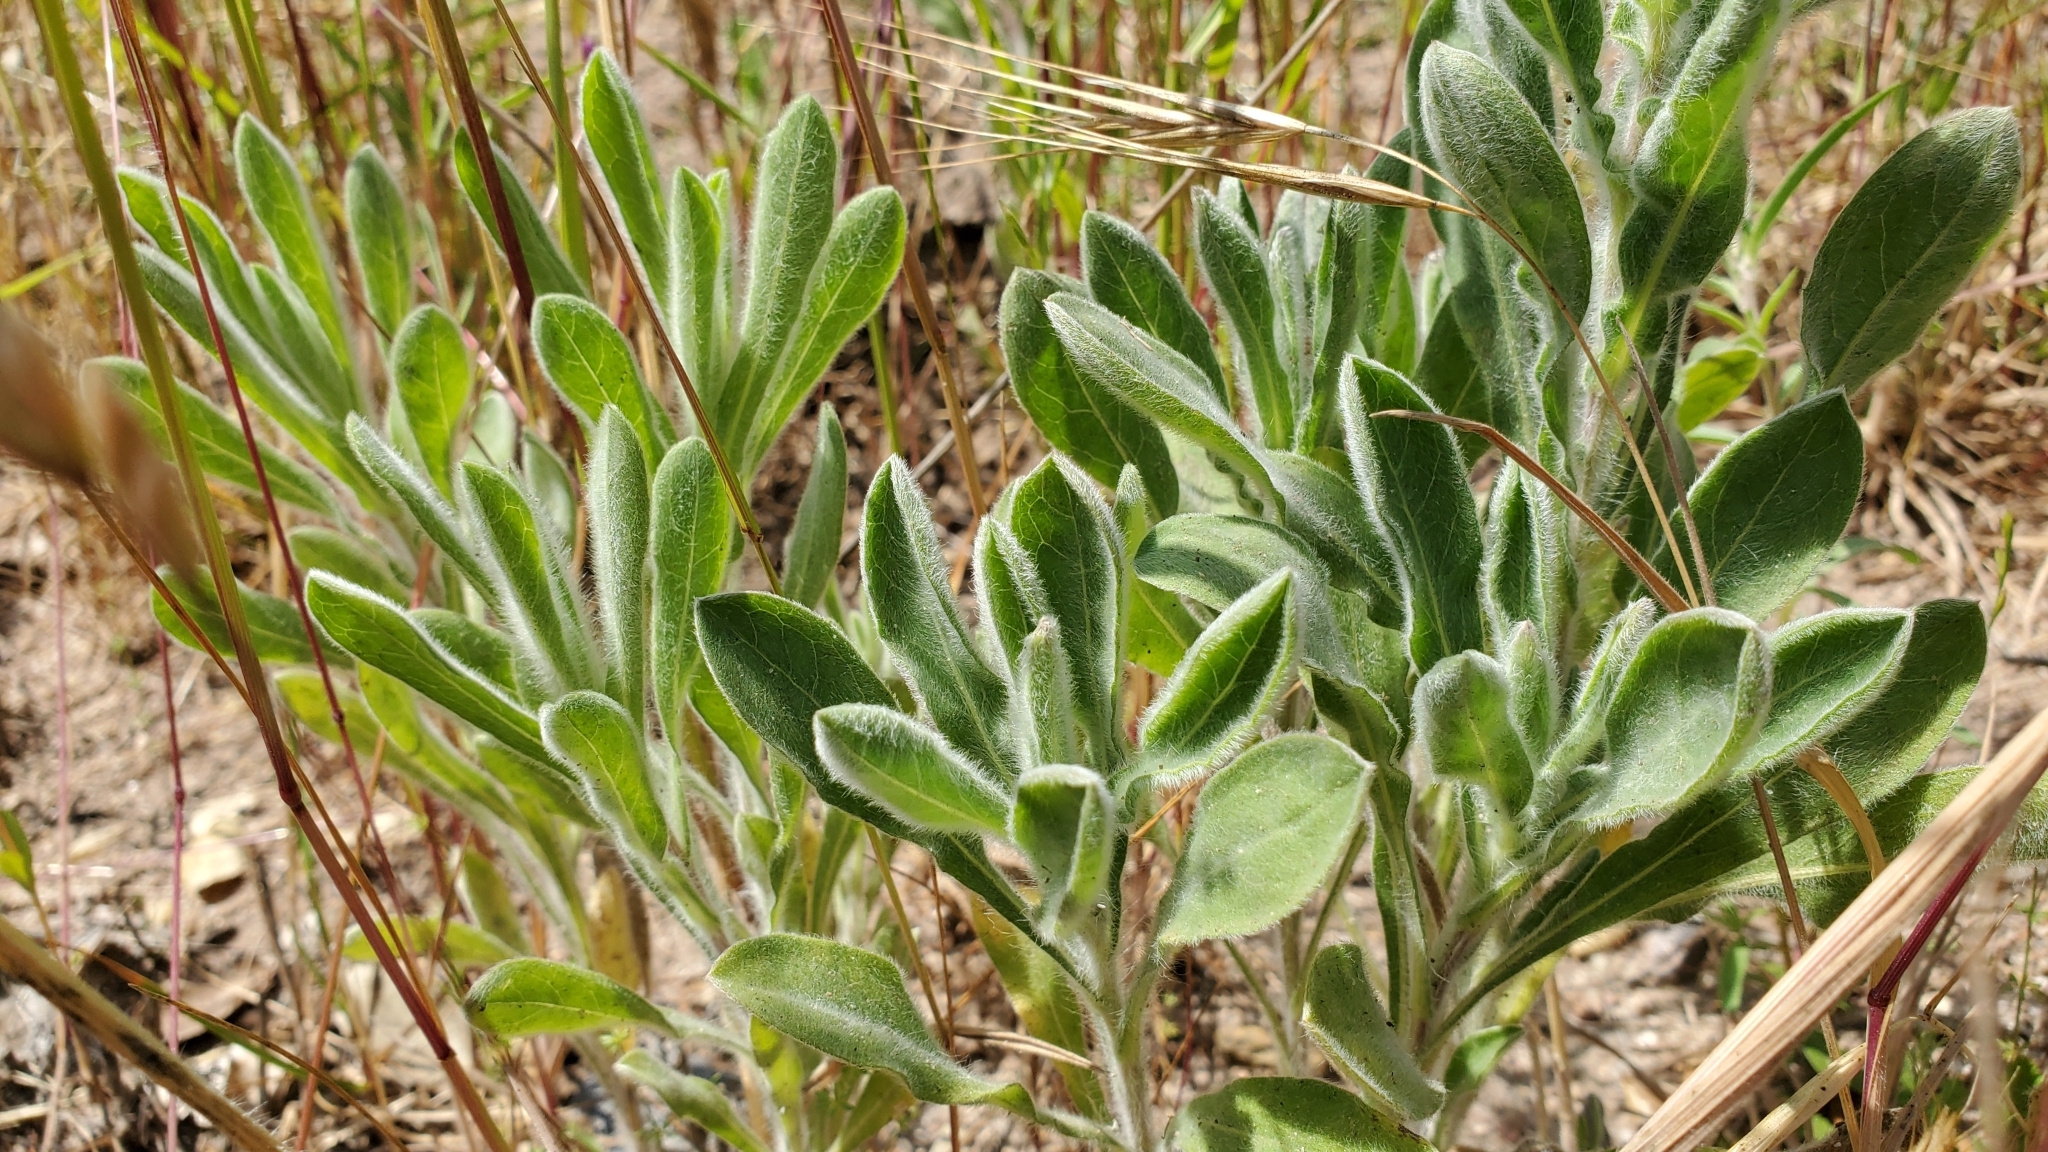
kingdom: Plantae
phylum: Tracheophyta
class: Magnoliopsida
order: Asterales
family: Asteraceae
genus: Heterotheca
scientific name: Heterotheca sessiliflora
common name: Sessile-flower golden-aster
